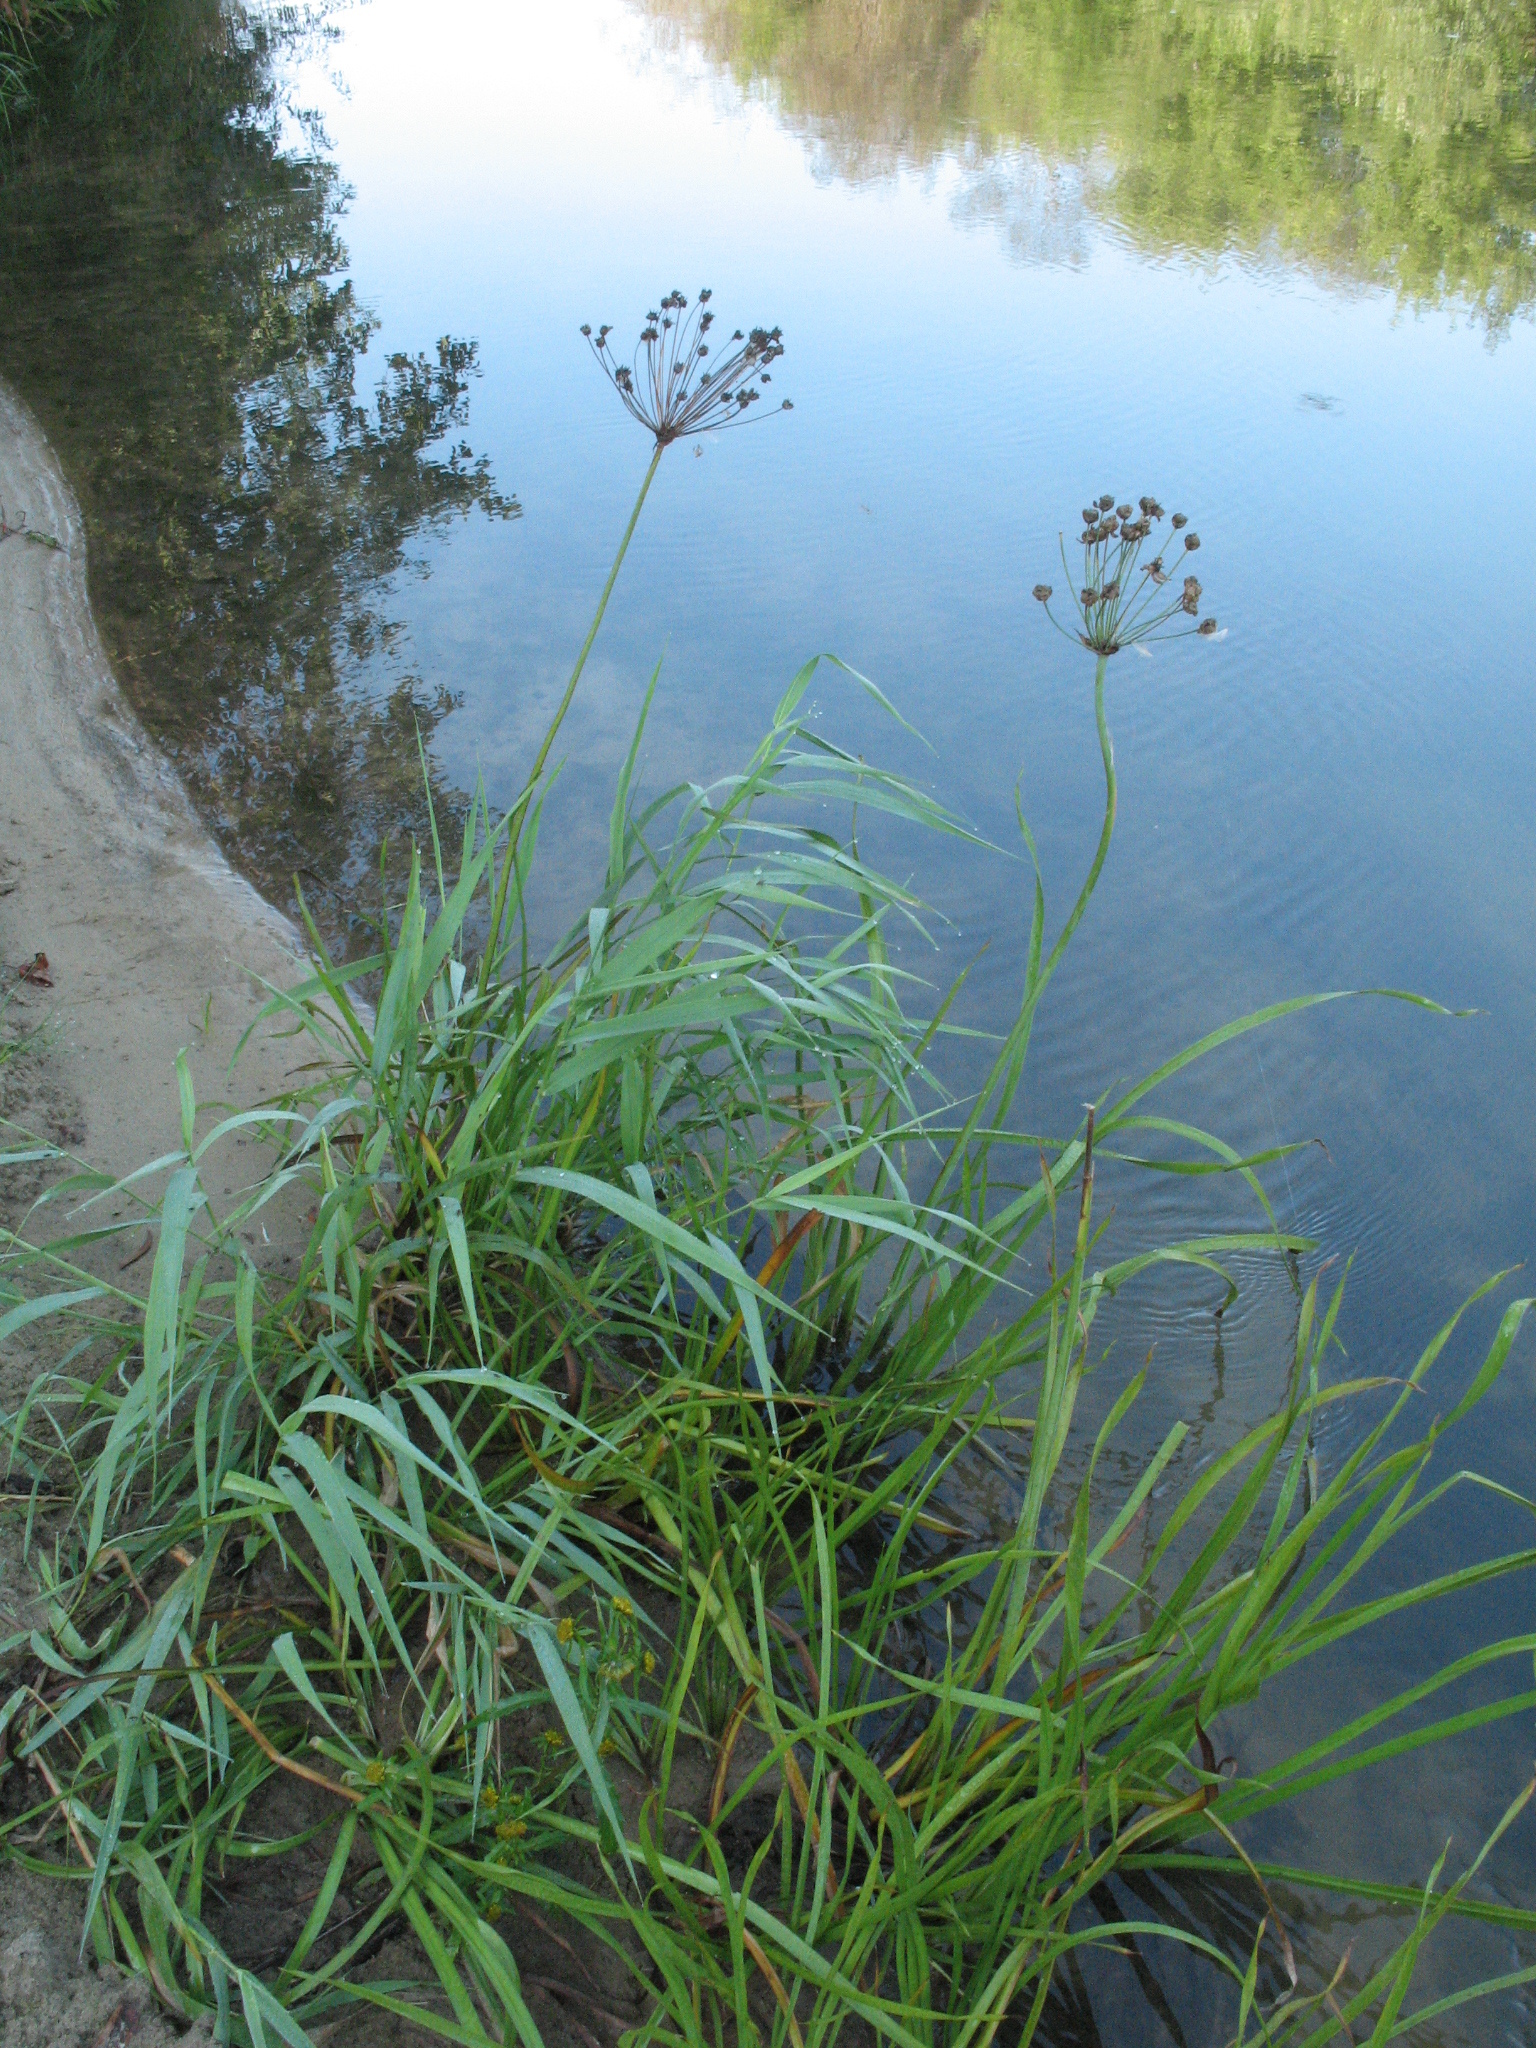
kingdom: Plantae
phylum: Tracheophyta
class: Liliopsida
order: Alismatales
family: Butomaceae
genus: Butomus
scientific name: Butomus umbellatus
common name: Flowering-rush
